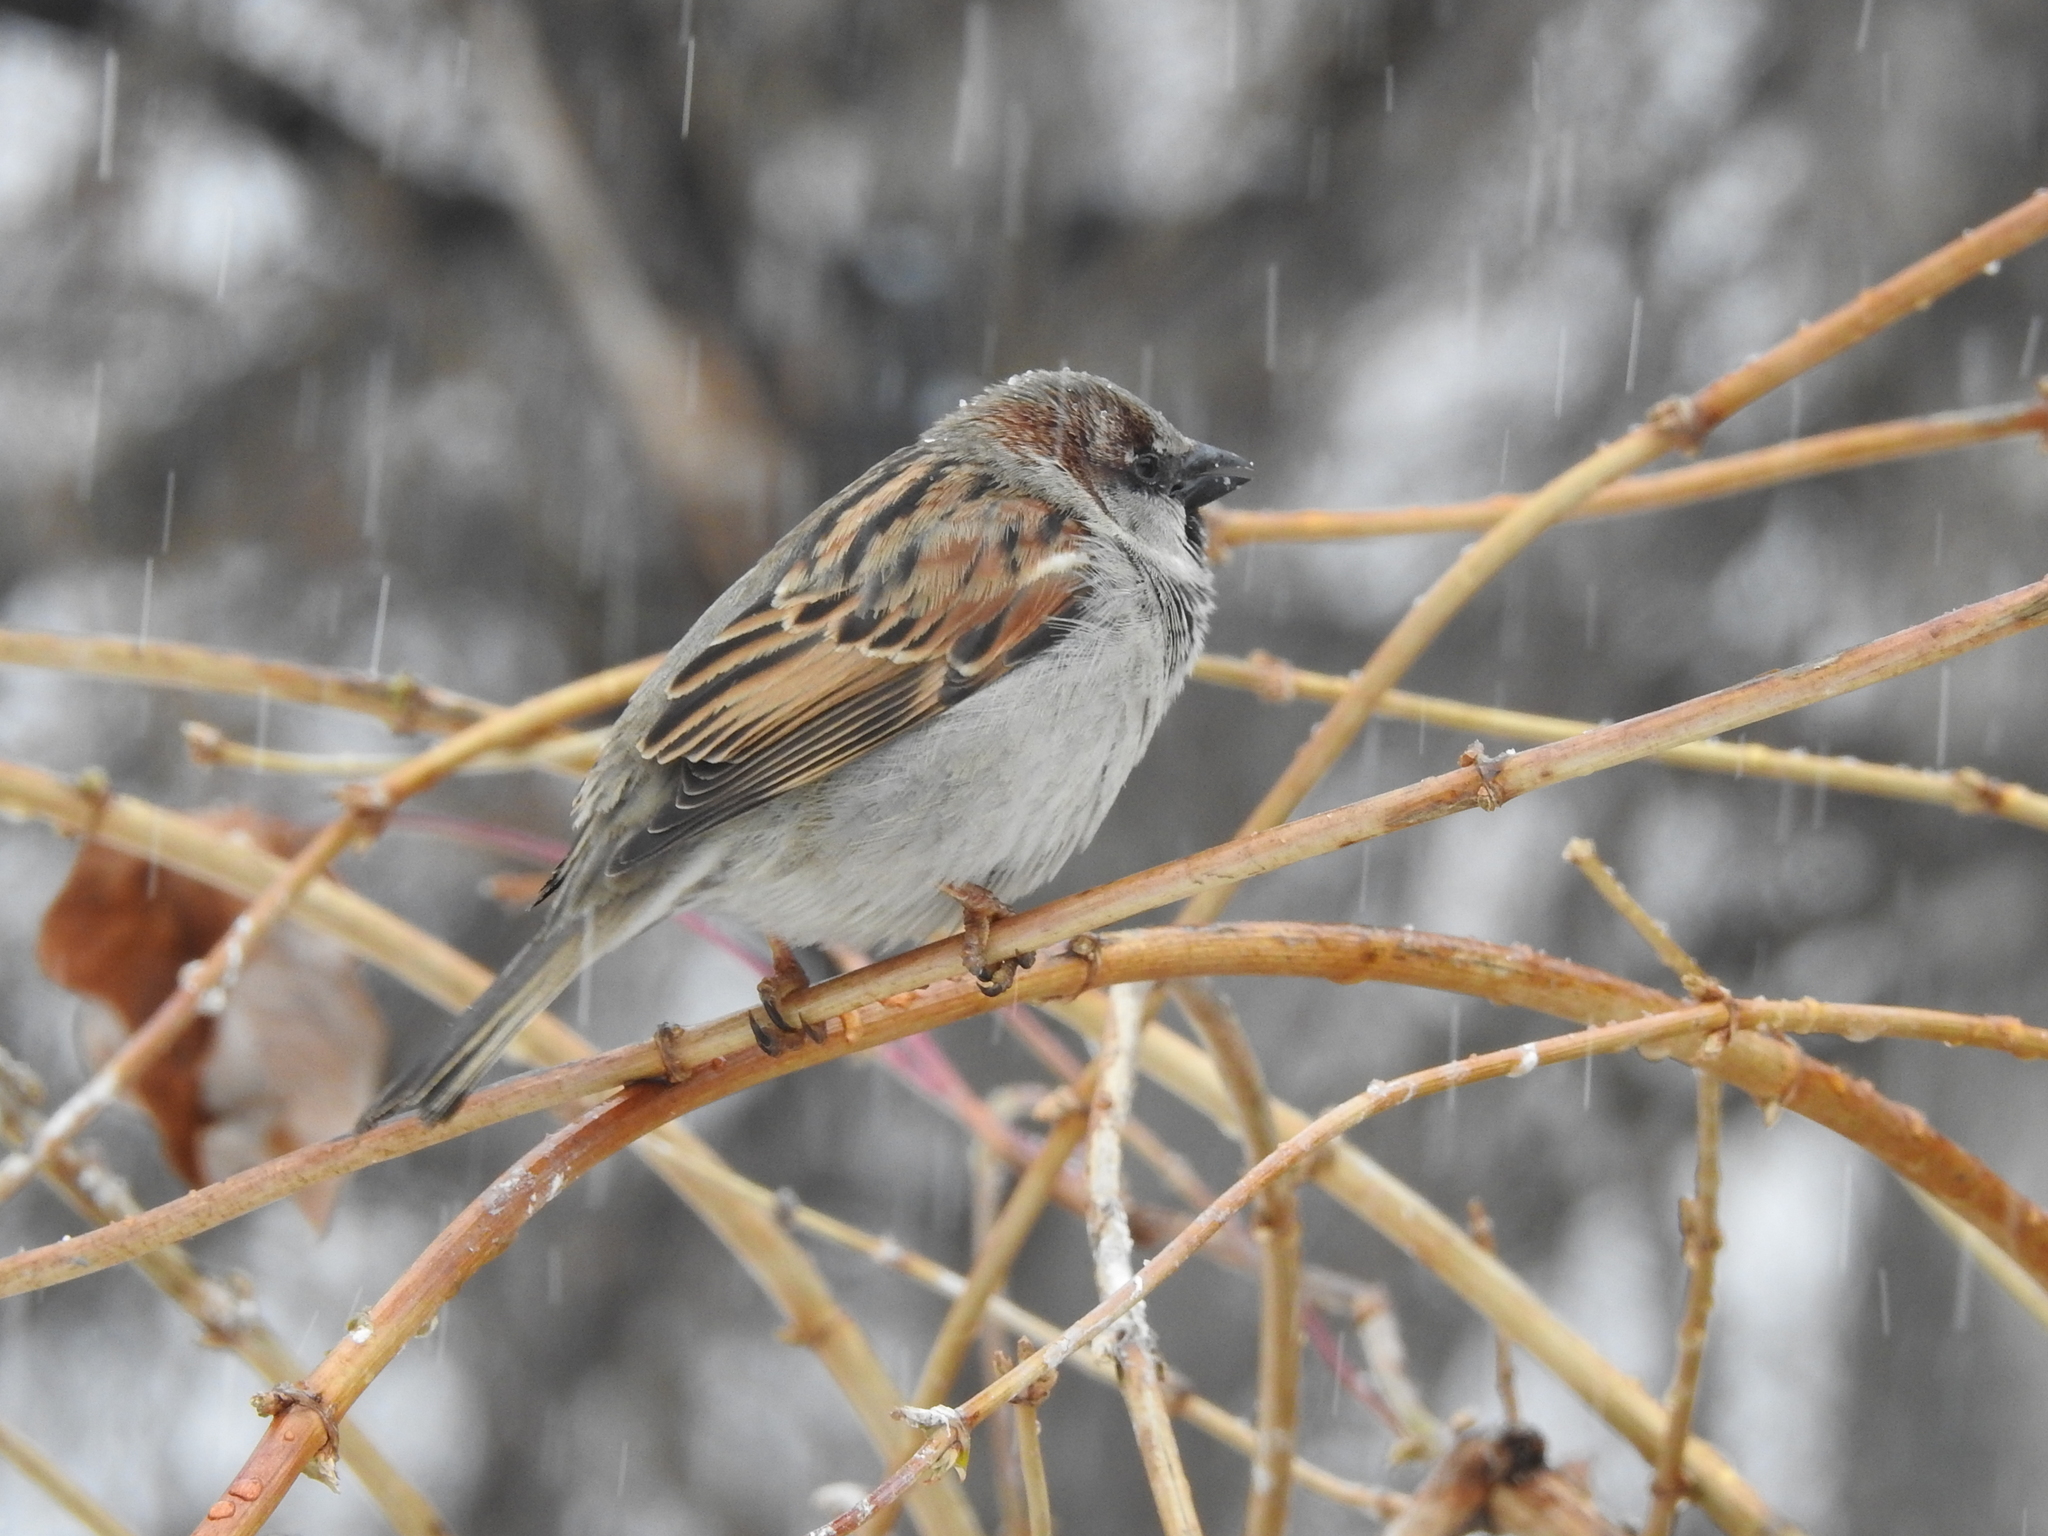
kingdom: Animalia
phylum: Chordata
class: Aves
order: Passeriformes
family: Passeridae
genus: Passer
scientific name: Passer domesticus
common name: House sparrow
